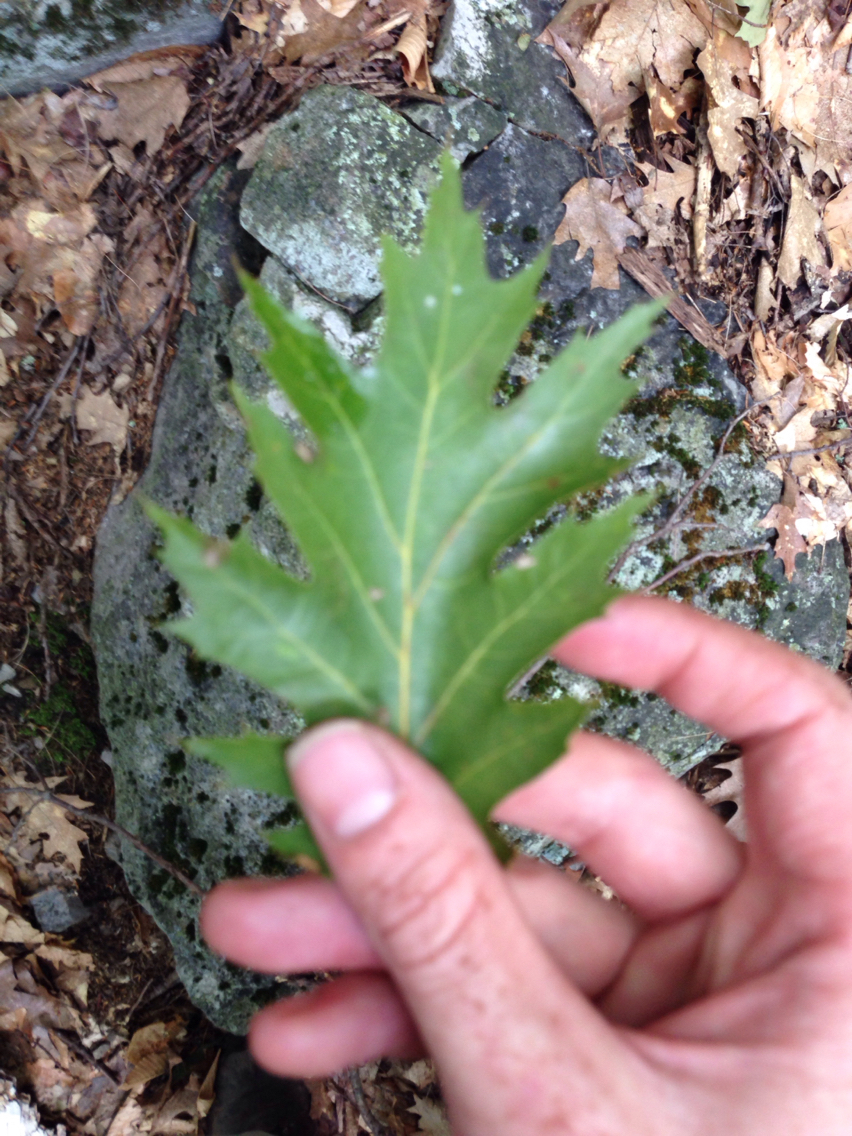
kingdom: Plantae
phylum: Tracheophyta
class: Magnoliopsida
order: Fagales
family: Fagaceae
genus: Quercus
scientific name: Quercus rubra
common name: Red oak
